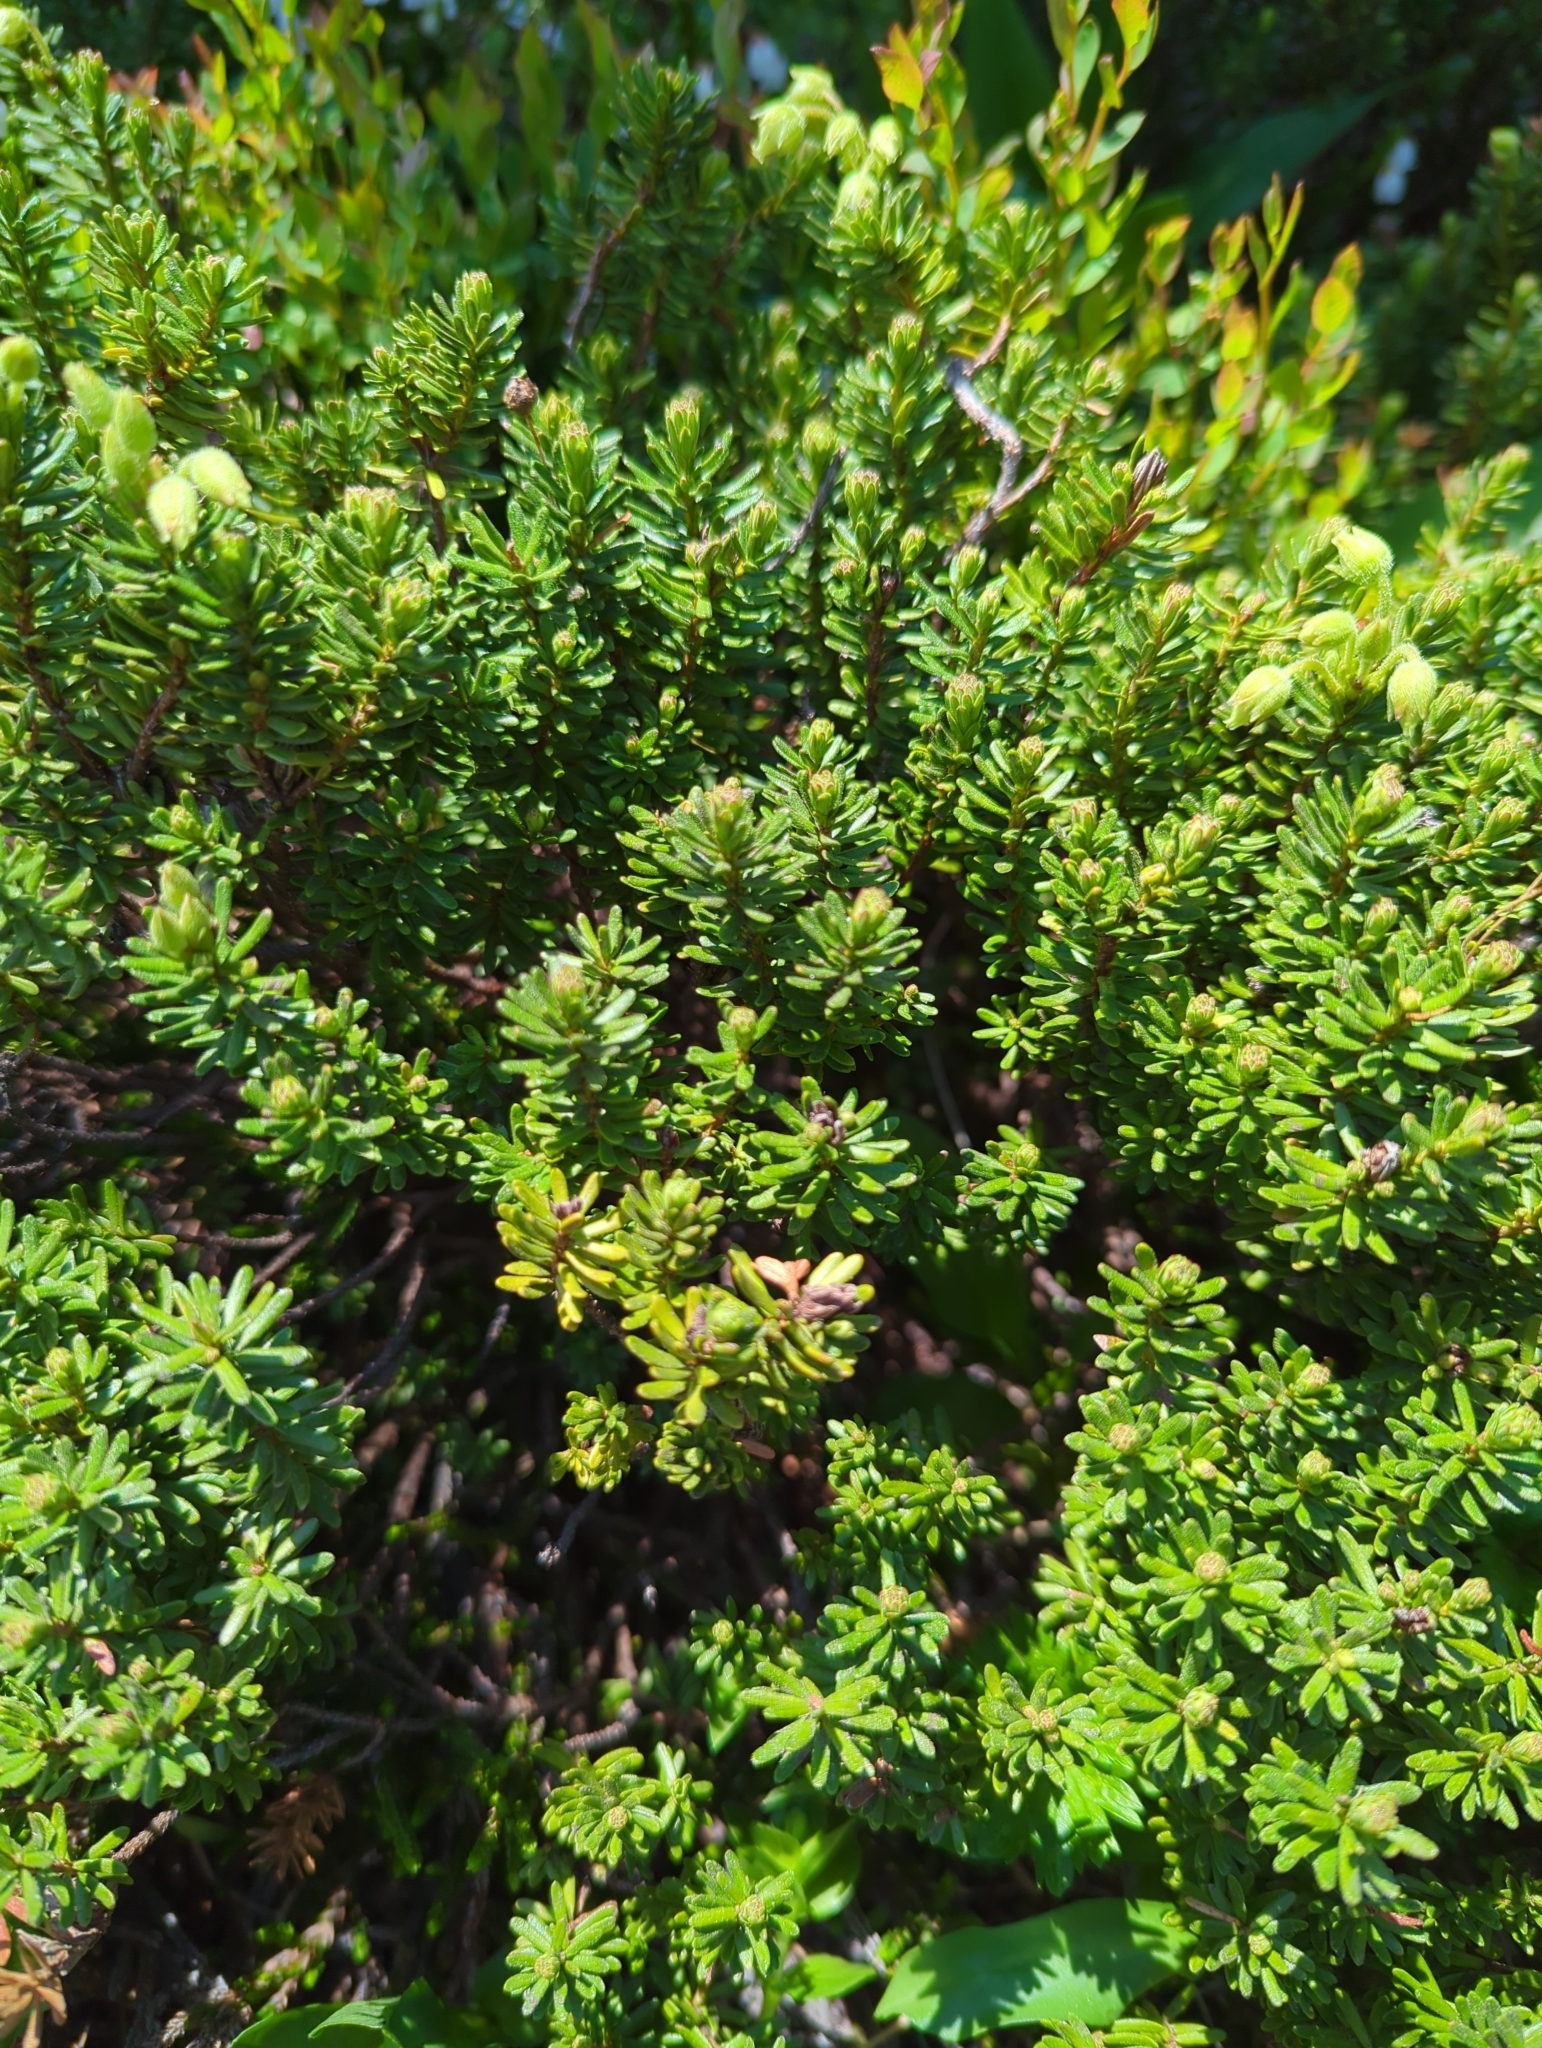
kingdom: Plantae
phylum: Tracheophyta
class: Magnoliopsida
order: Ericales
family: Ericaceae
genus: Phyllodoce
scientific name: Phyllodoce glanduliflora
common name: Cream mountain heather
